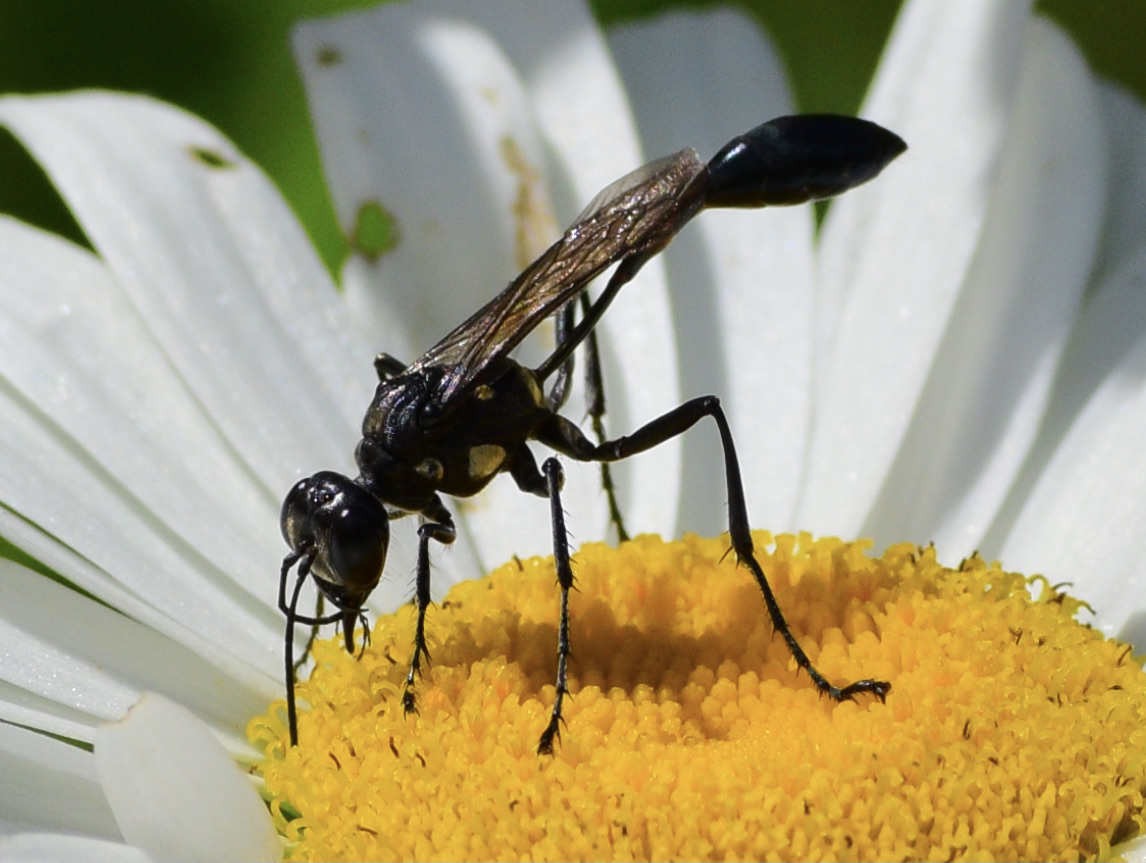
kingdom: Animalia
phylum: Arthropoda
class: Insecta
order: Hymenoptera
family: Sphecidae
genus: Eremnophila
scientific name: Eremnophila aureonotata
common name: Gold-marked thread-waisted wasp
